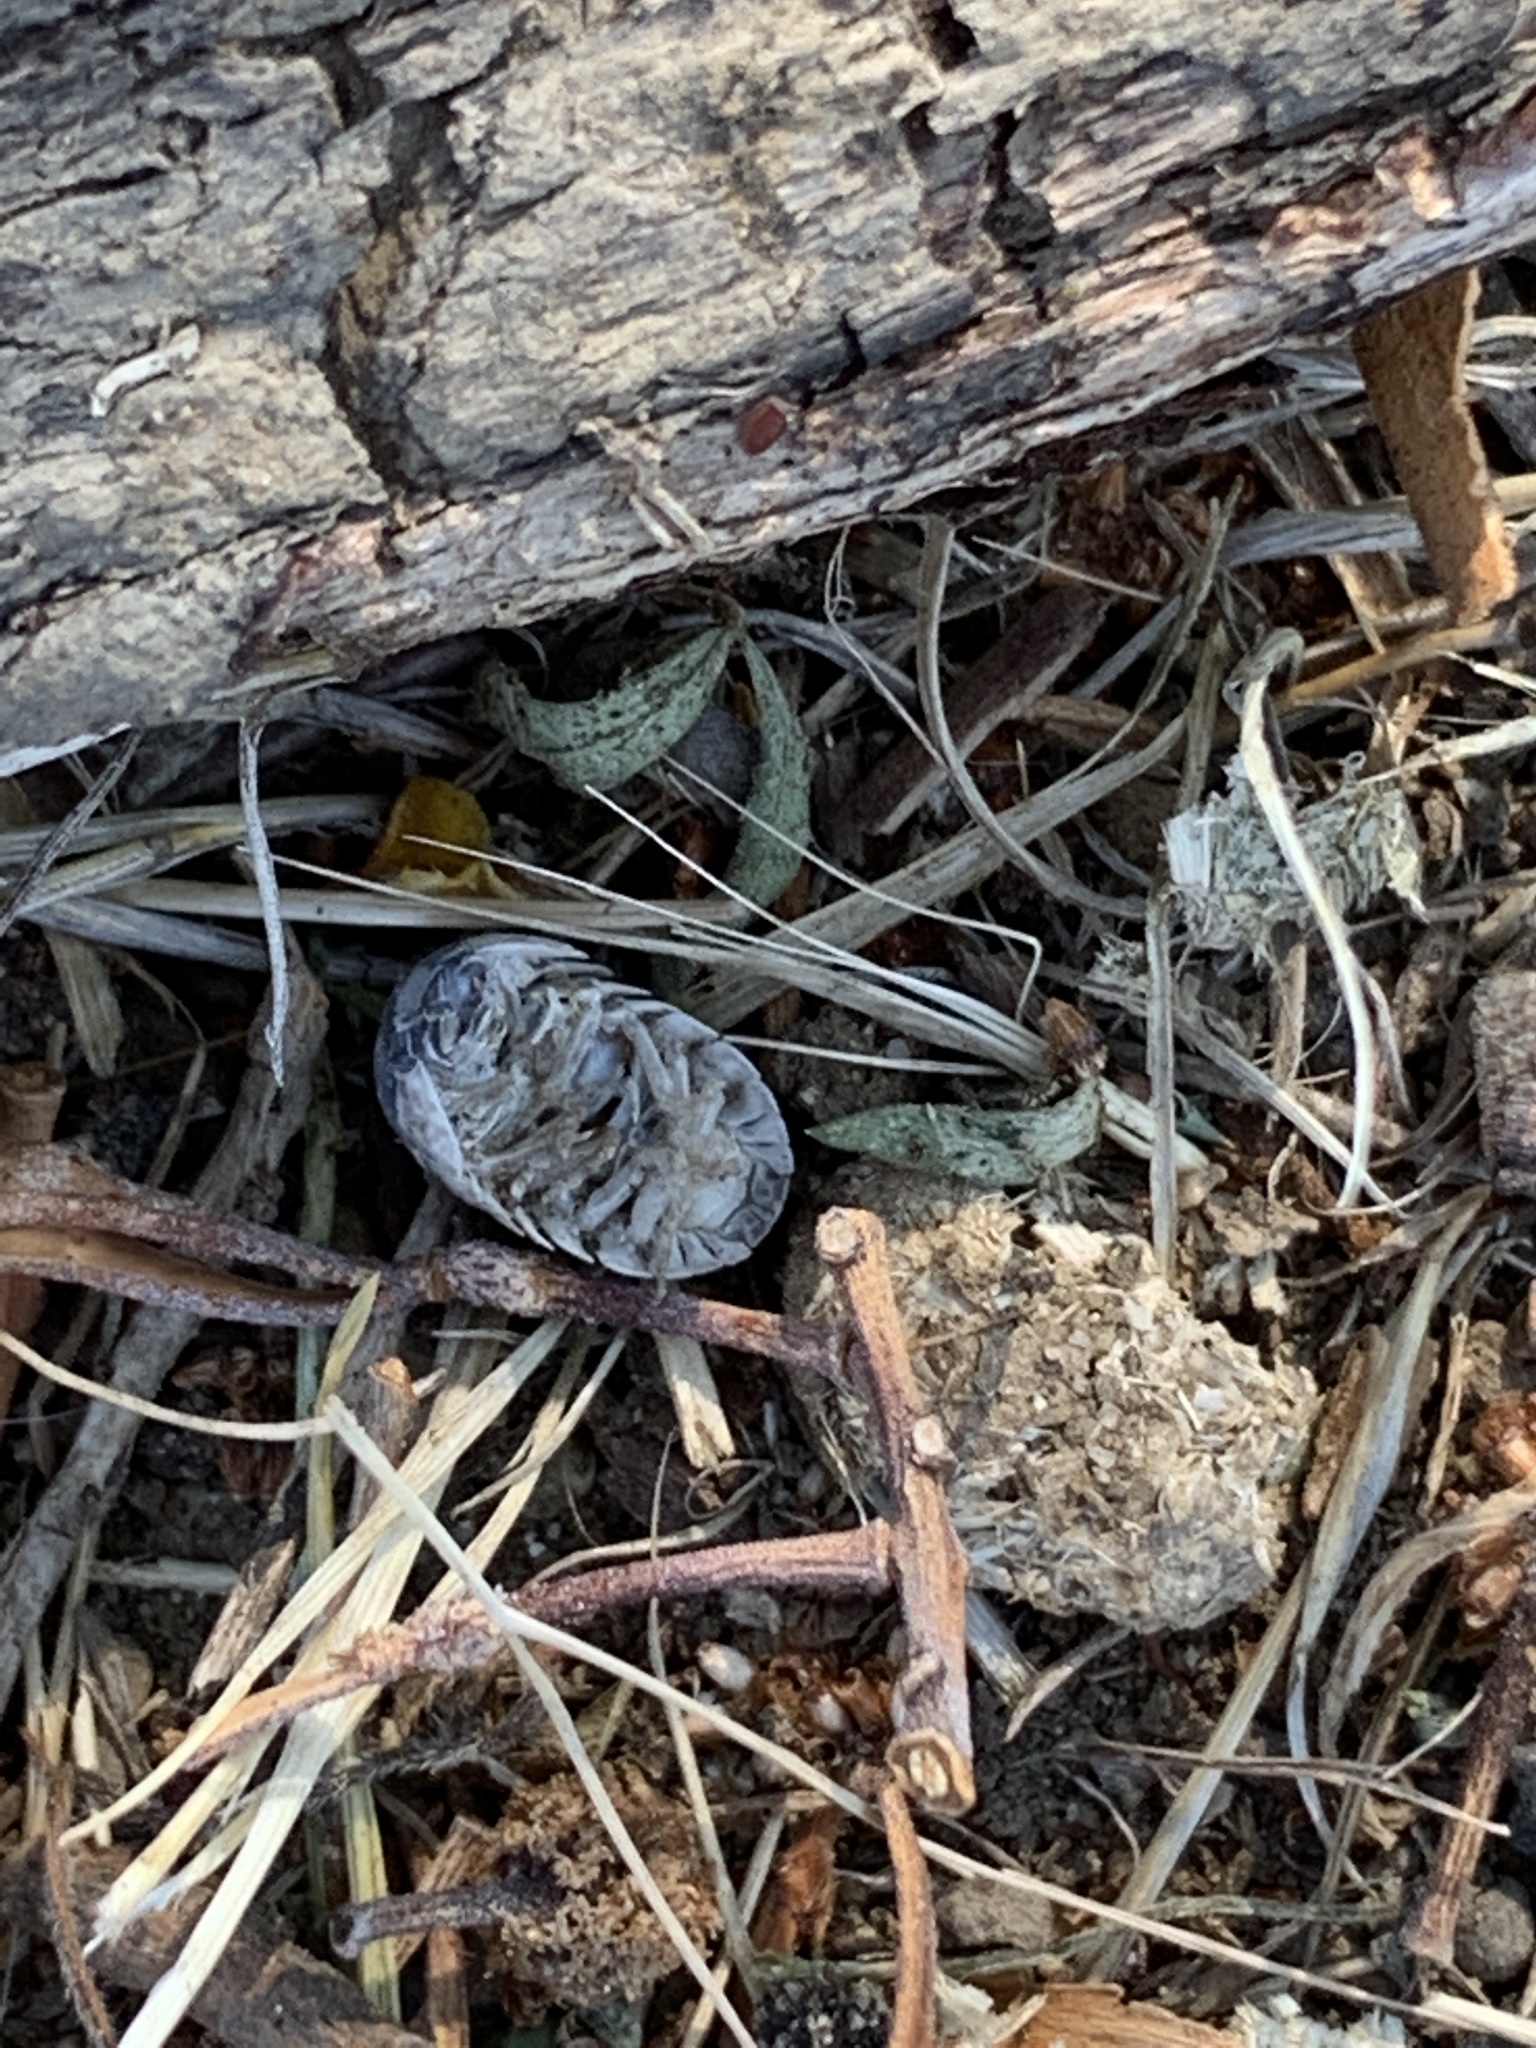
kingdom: Animalia
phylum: Arthropoda
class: Malacostraca
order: Isopoda
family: Armadillidiidae
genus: Armadillidium
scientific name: Armadillidium vulgare
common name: Common pill woodlouse
